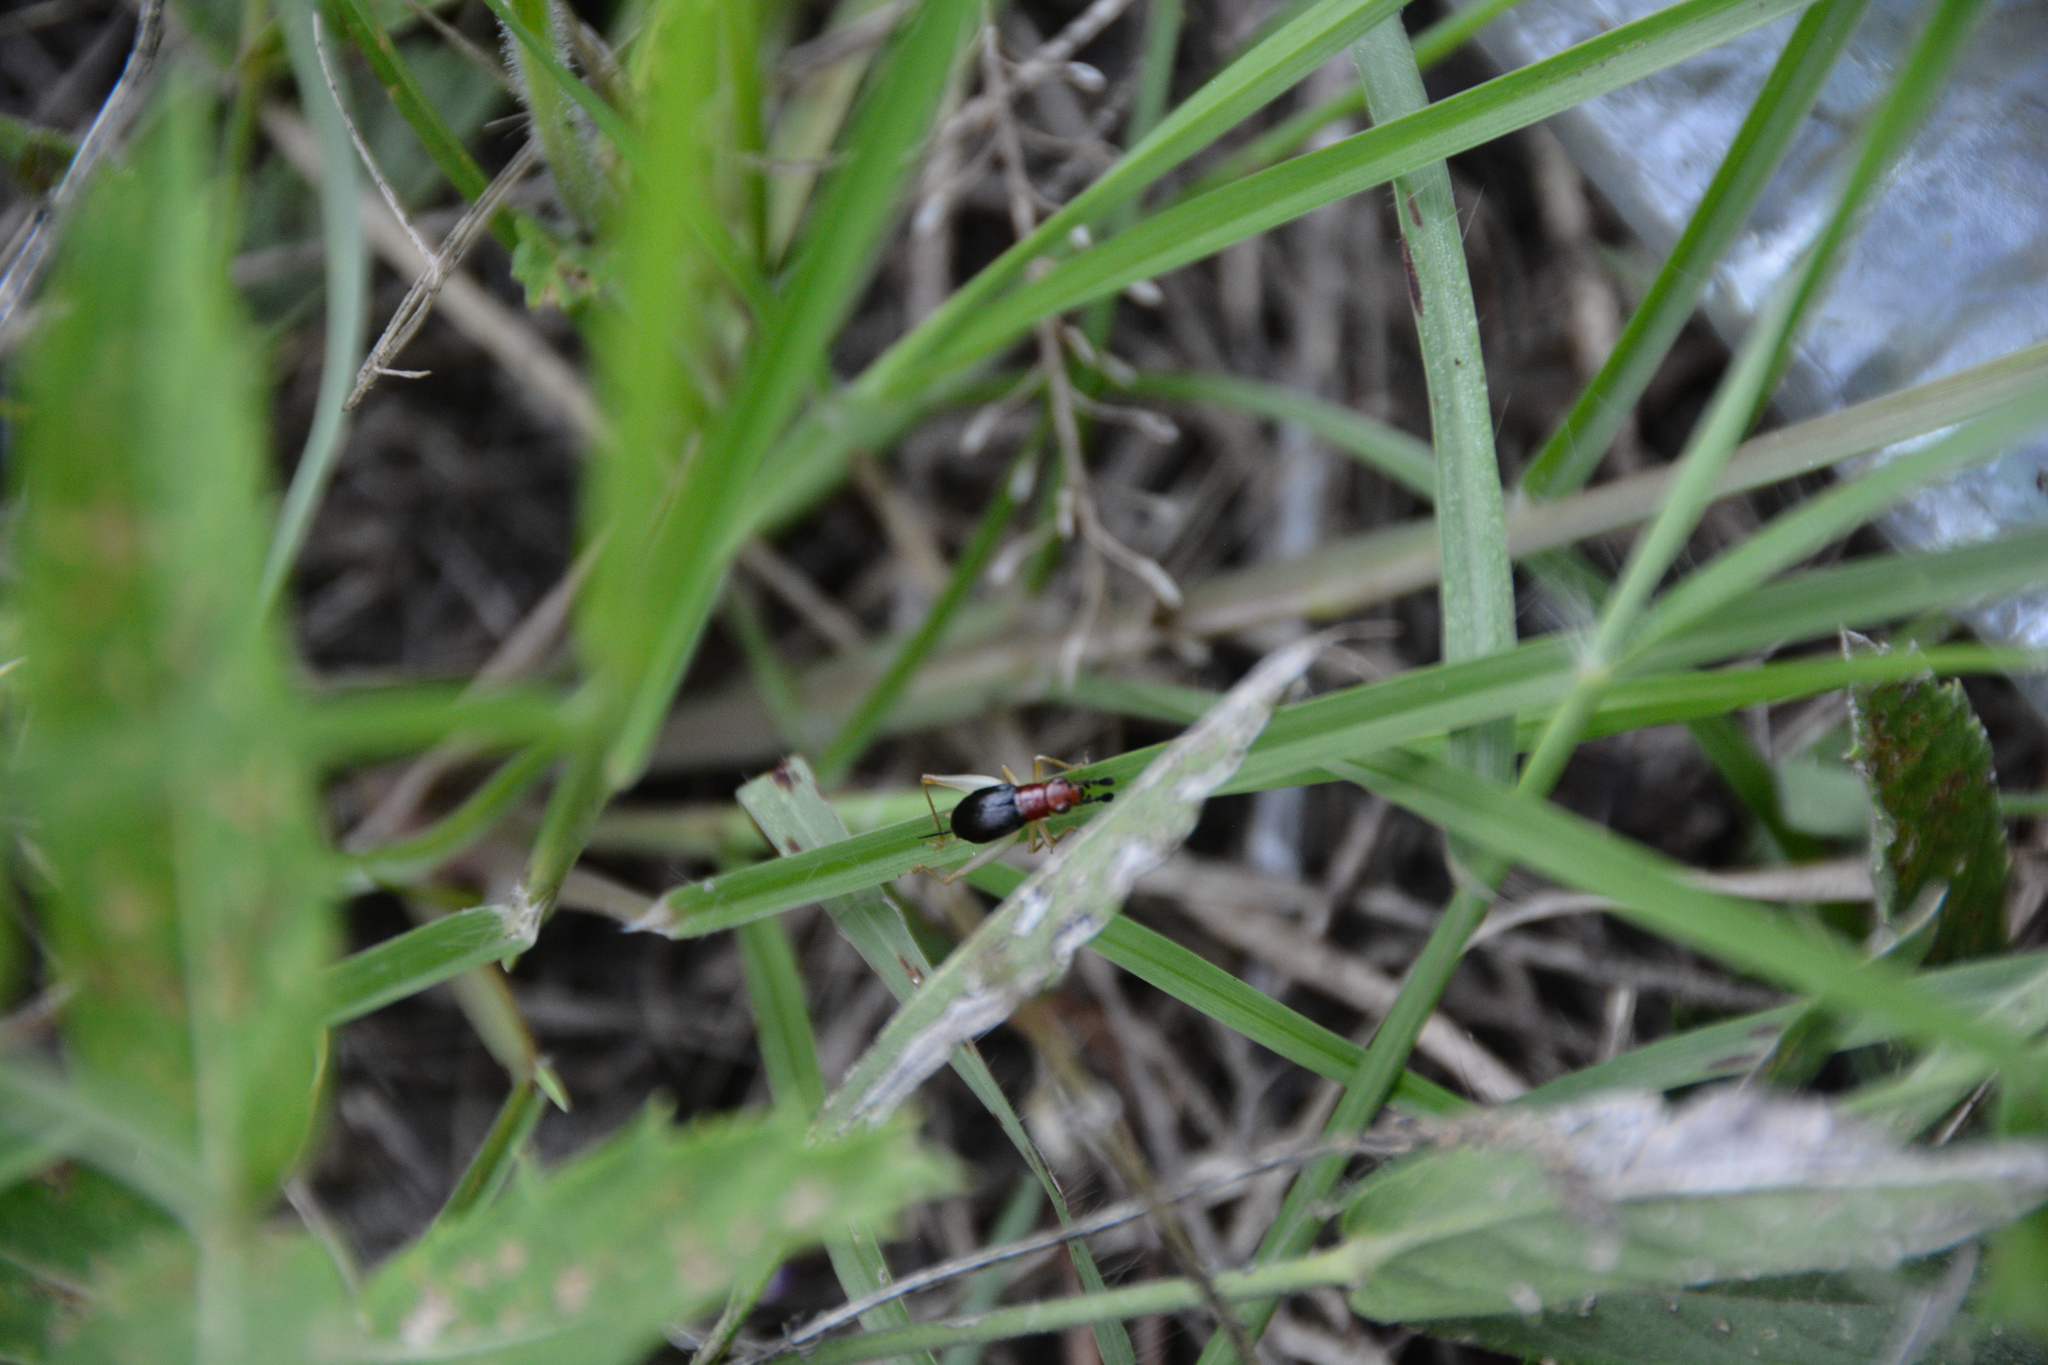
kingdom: Animalia
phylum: Arthropoda
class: Insecta
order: Orthoptera
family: Trigonidiidae
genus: Phyllopalpus
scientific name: Phyllopalpus pulchellus
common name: Handsome trig
